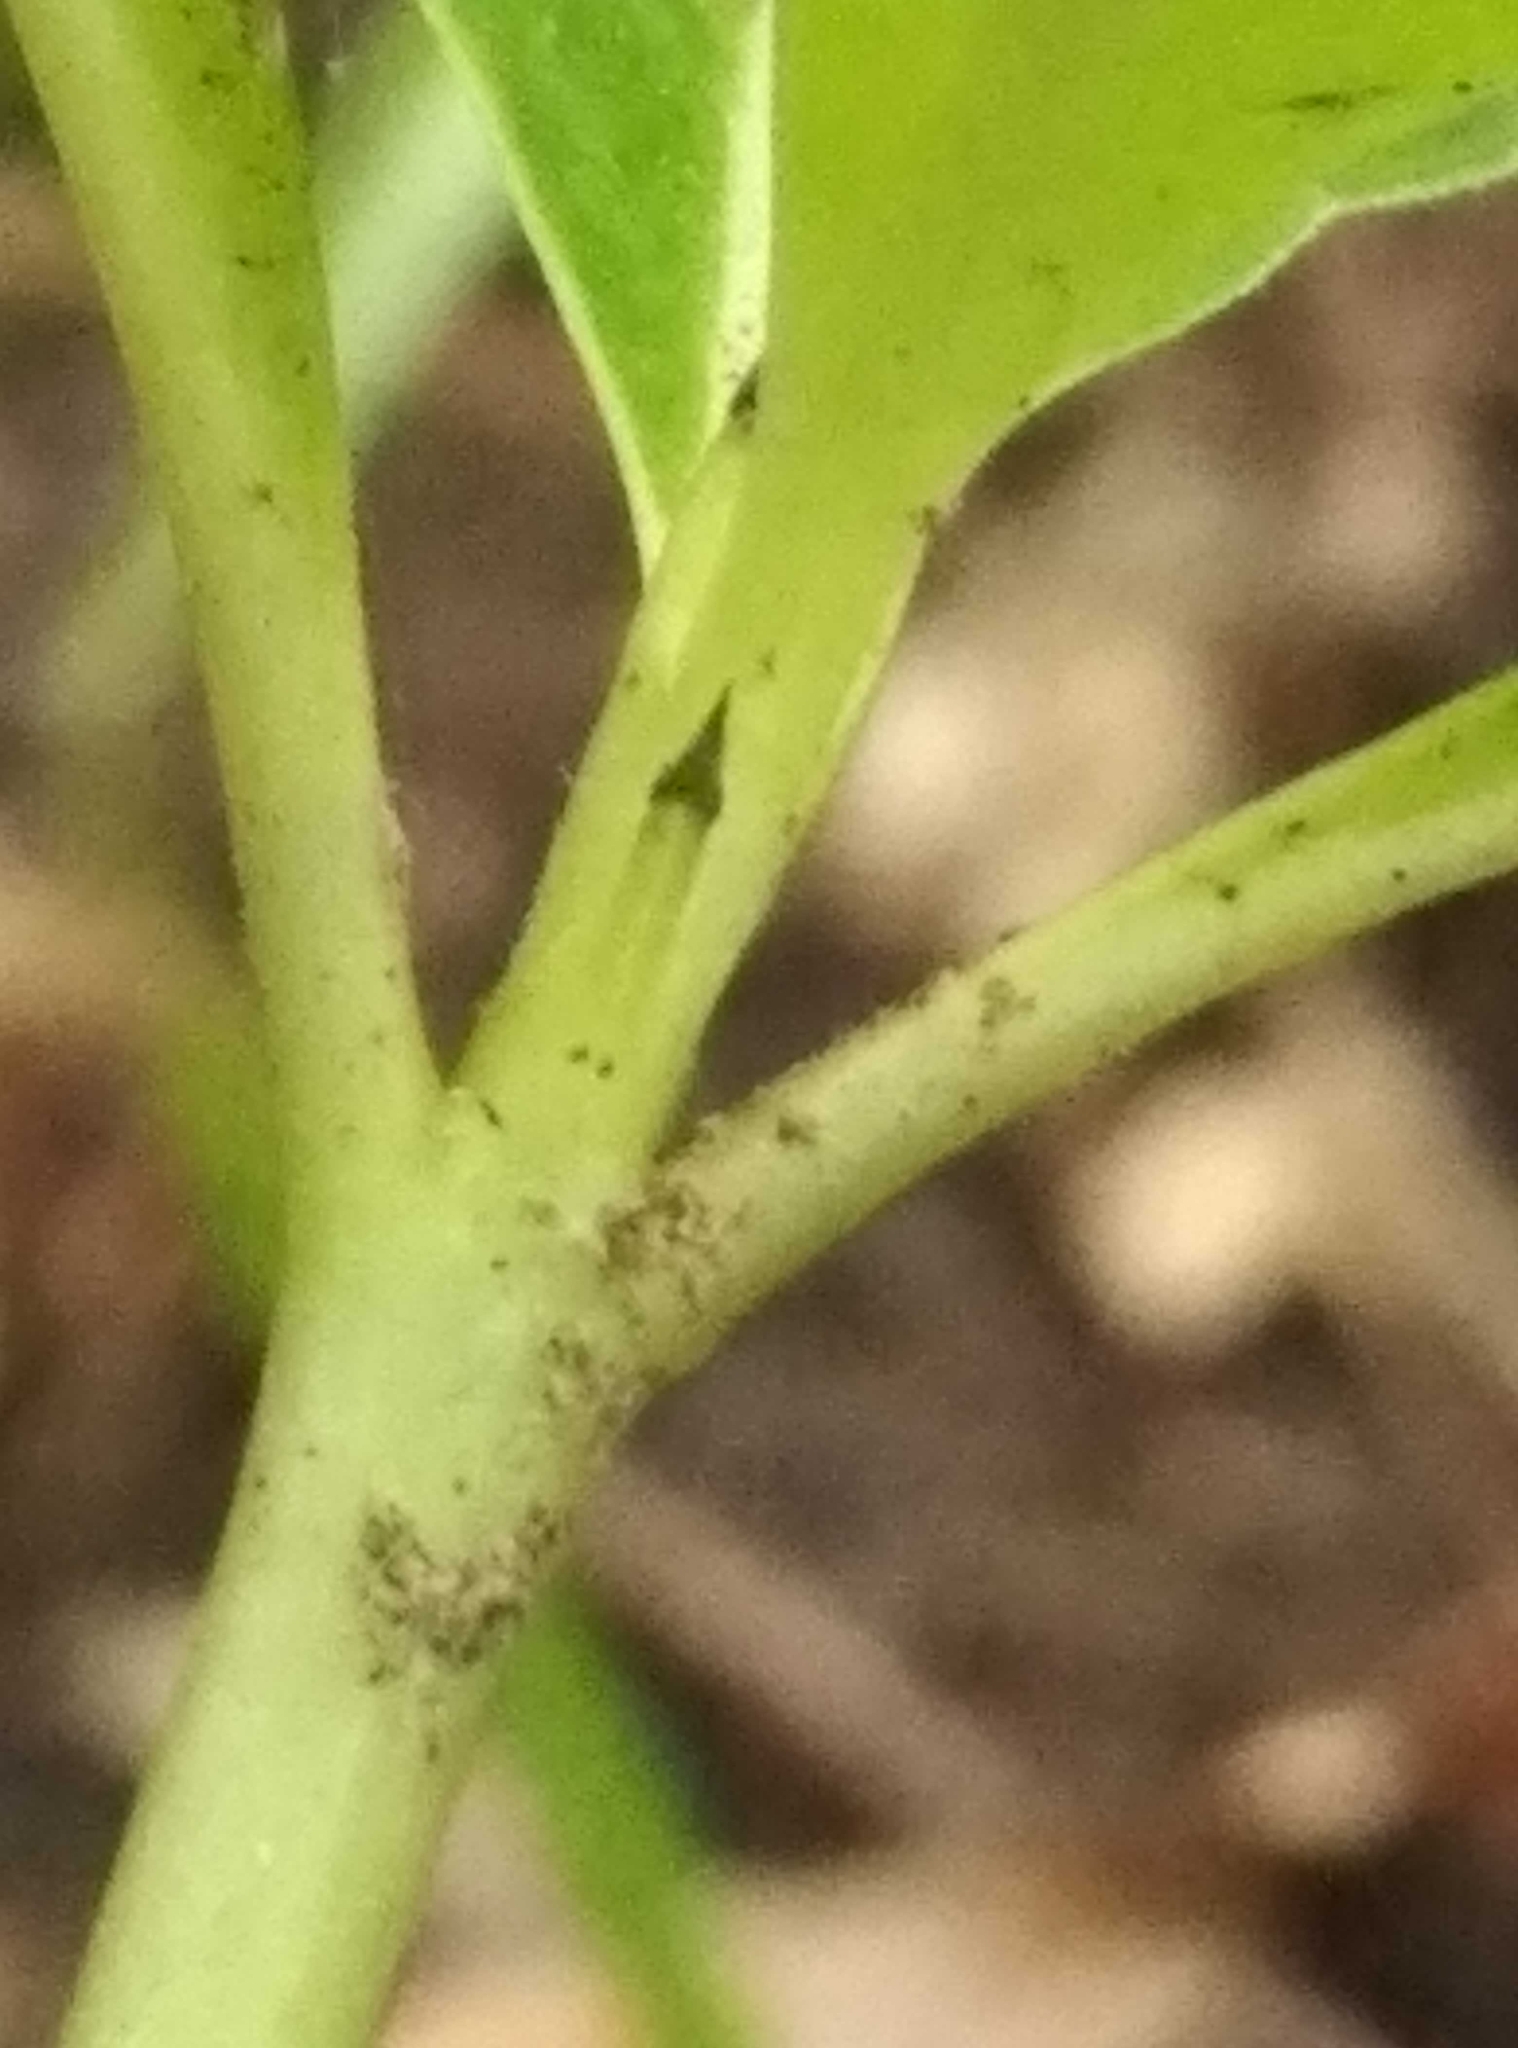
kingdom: Plantae
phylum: Tracheophyta
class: Magnoliopsida
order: Gentianales
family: Rubiaceae
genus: Coprosma
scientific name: Coprosma robusta
